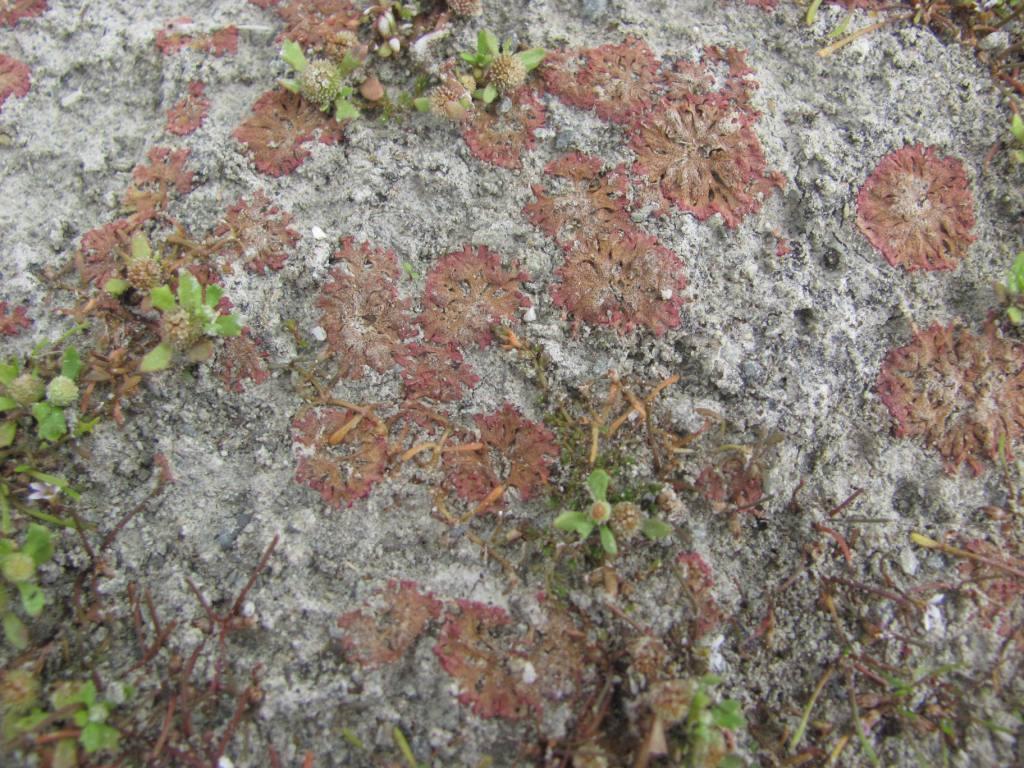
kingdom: Plantae
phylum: Marchantiophyta
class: Marchantiopsida
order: Marchantiales
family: Ricciaceae
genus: Riccia
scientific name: Riccia cavernosa
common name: Cavernous crystalwort
